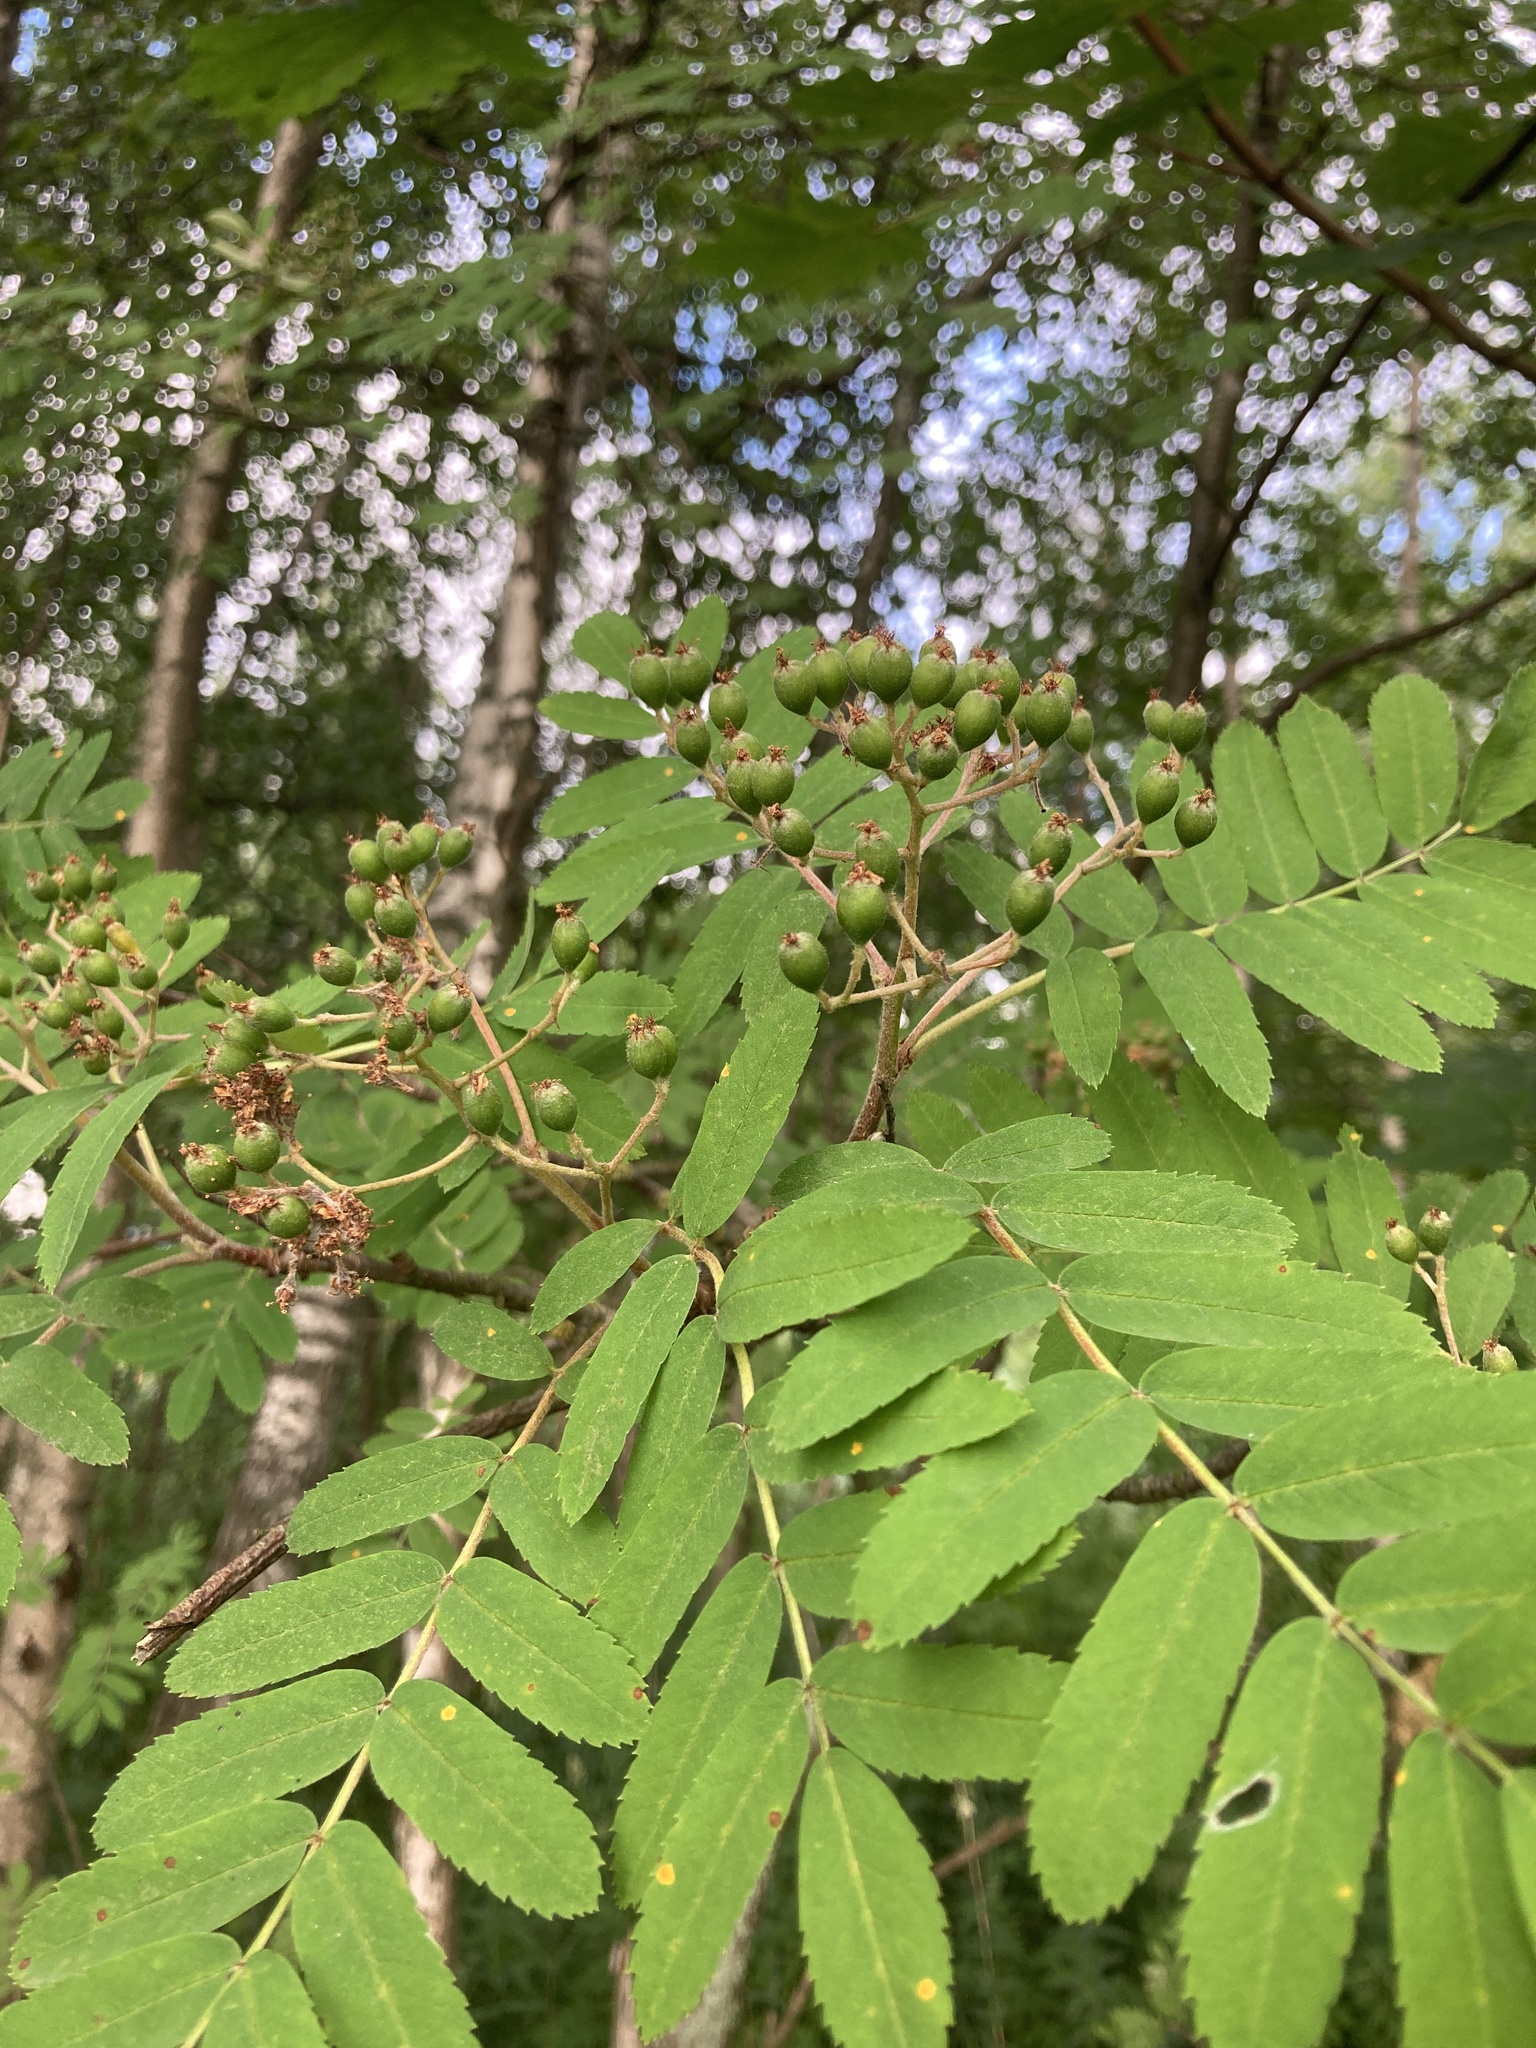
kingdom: Plantae
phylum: Tracheophyta
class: Magnoliopsida
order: Rosales
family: Rosaceae
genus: Sorbus
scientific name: Sorbus aucuparia
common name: Rowan
